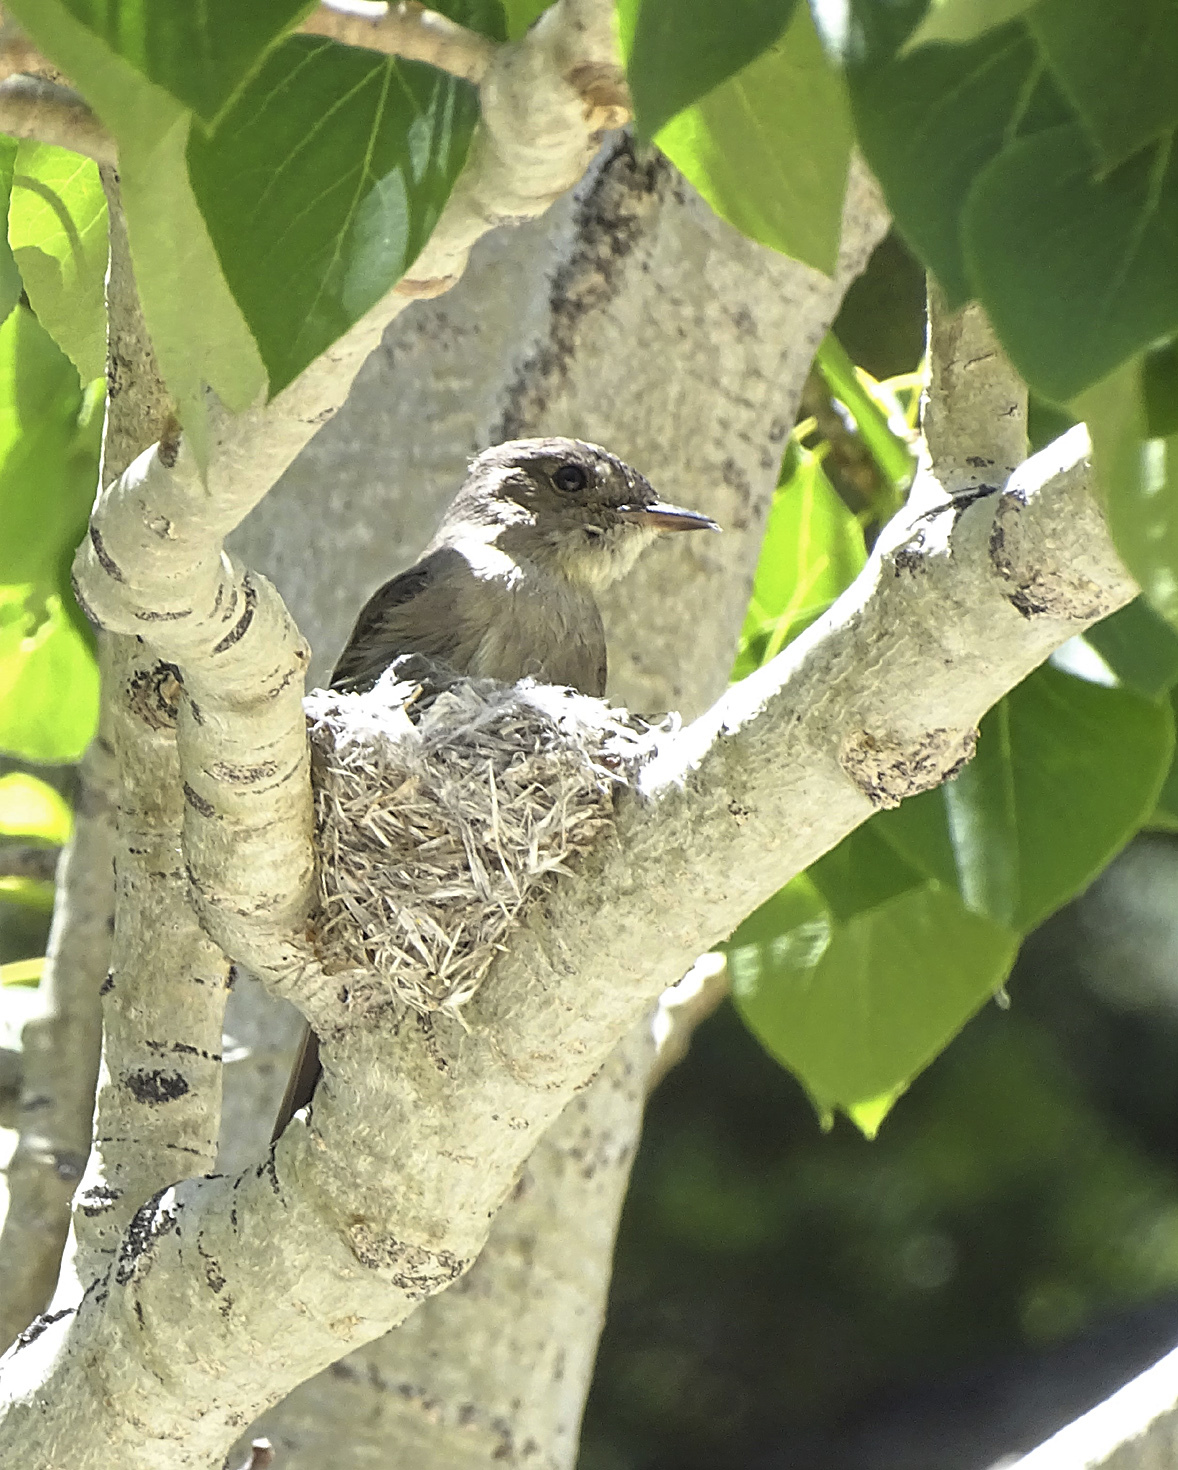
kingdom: Animalia
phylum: Chordata
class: Aves
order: Passeriformes
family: Tyrannidae
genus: Contopus
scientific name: Contopus sordidulus
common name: Western wood-pewee
